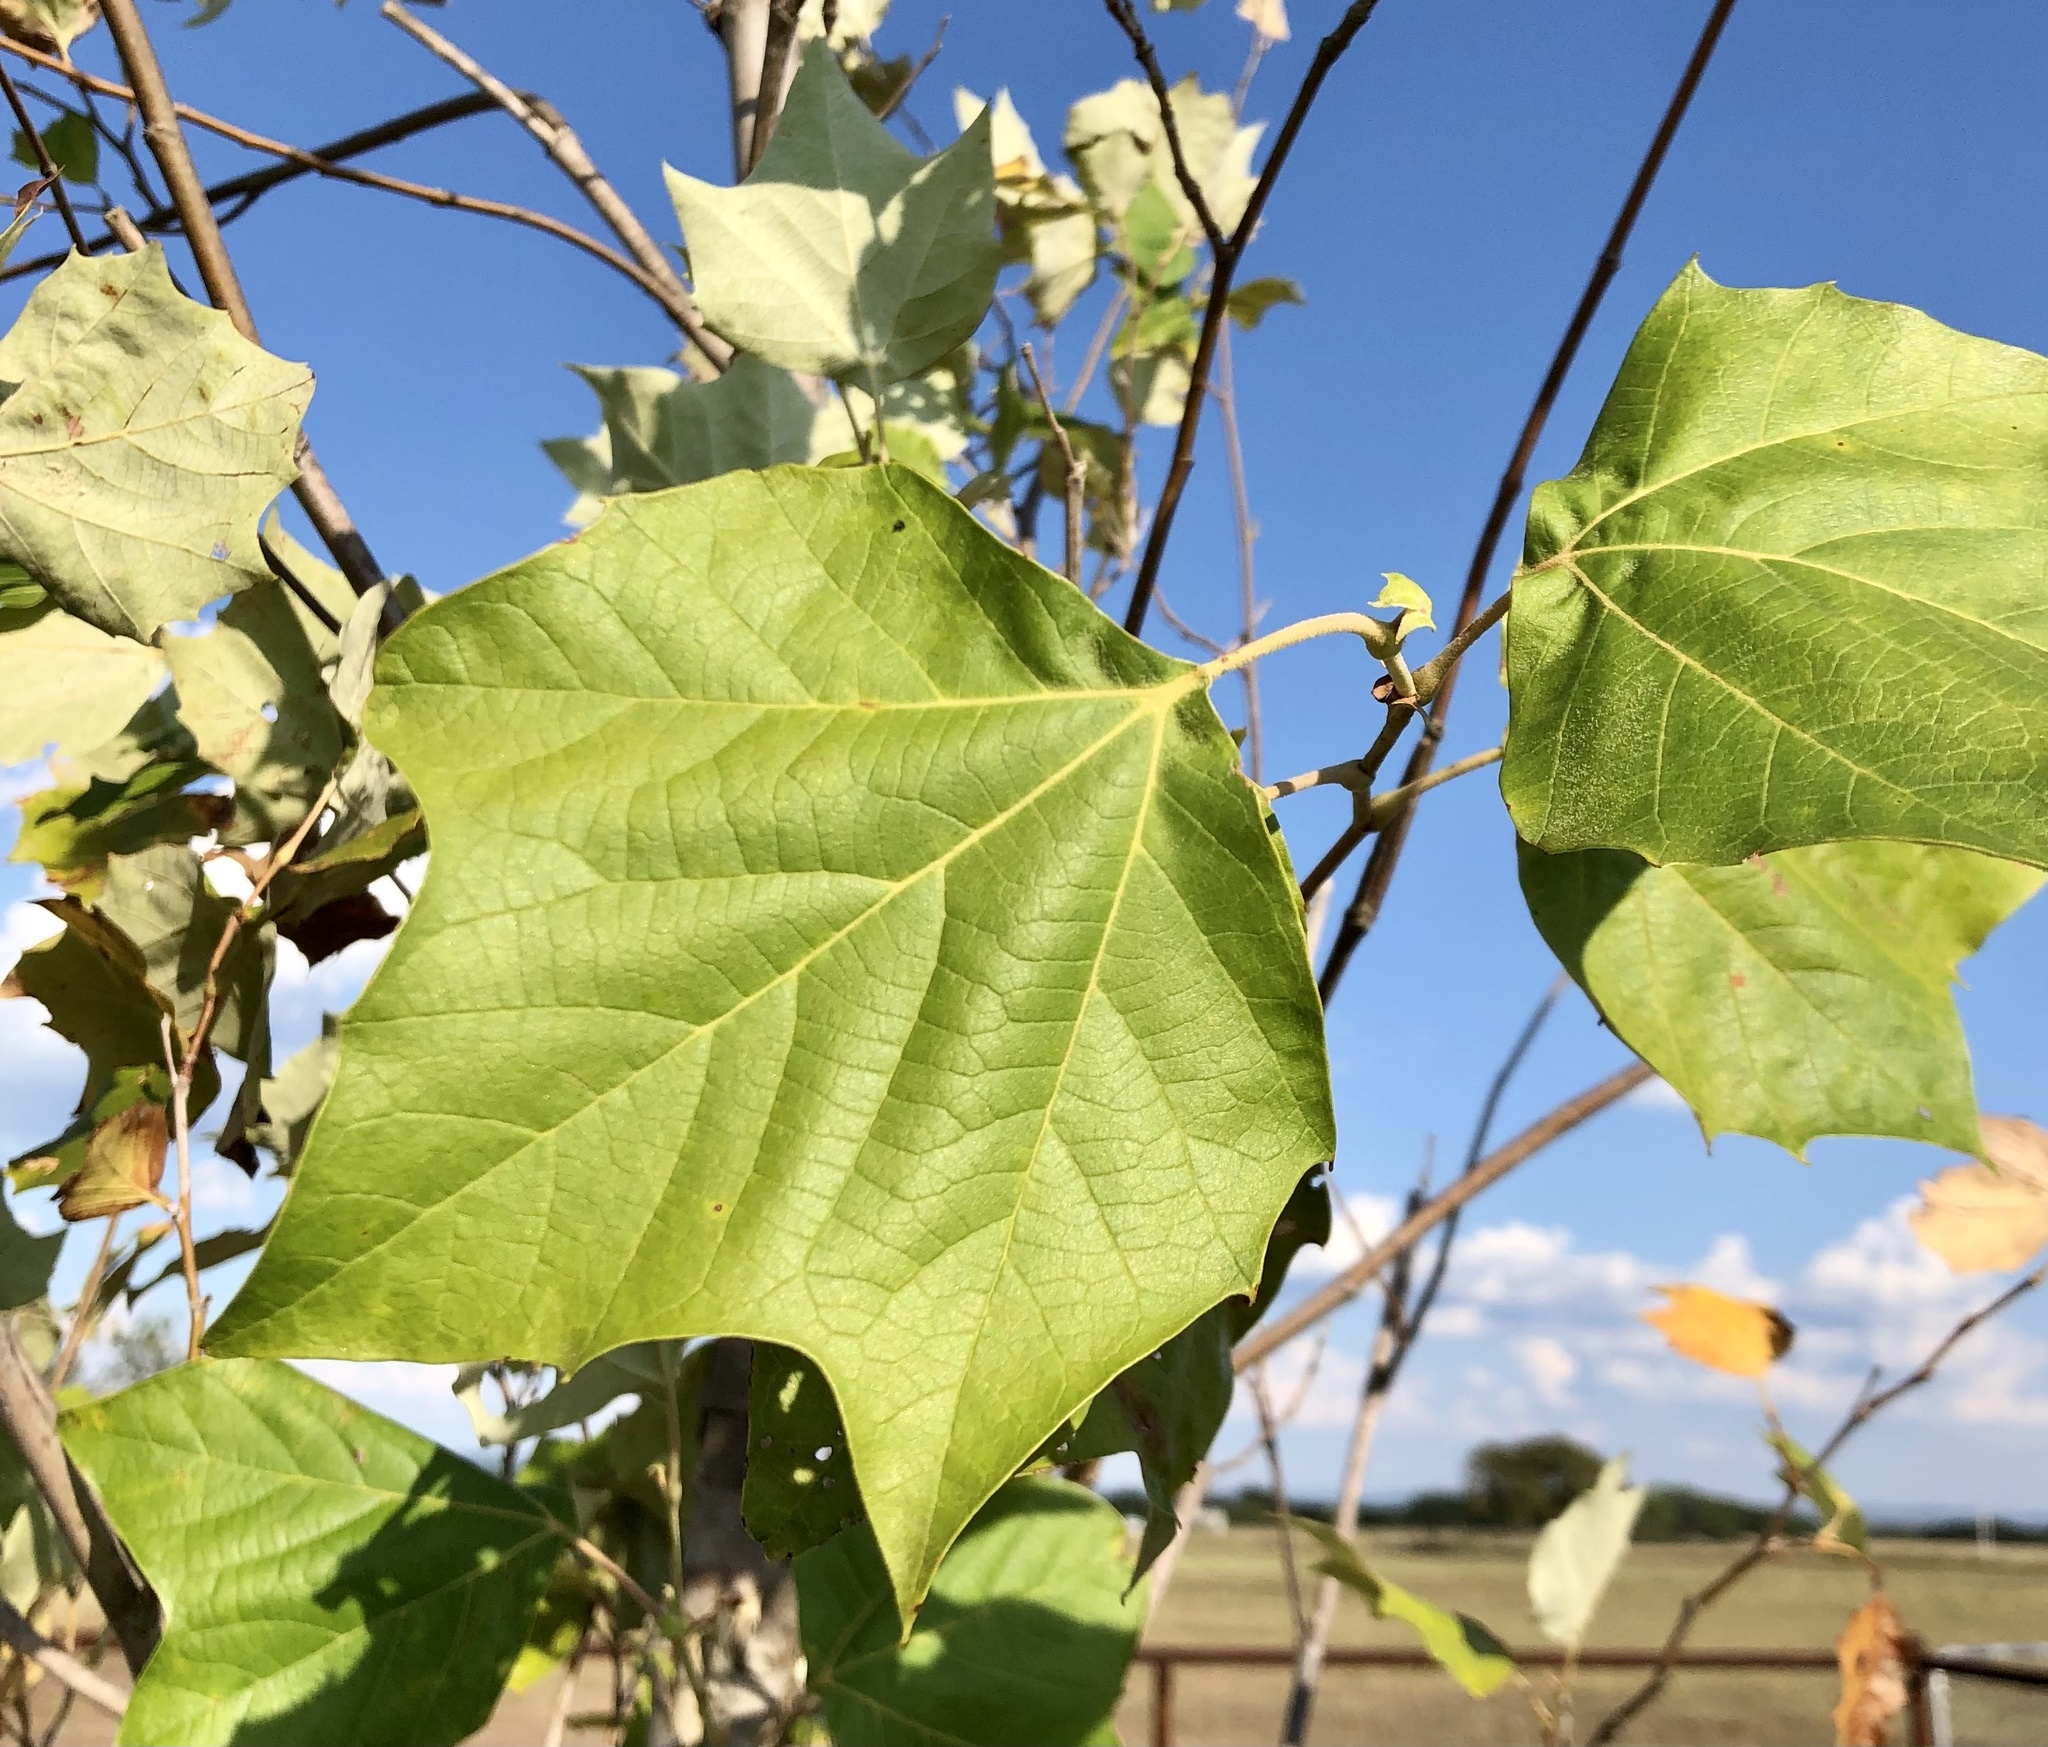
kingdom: Plantae
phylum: Tracheophyta
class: Magnoliopsida
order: Proteales
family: Platanaceae
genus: Platanus
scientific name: Platanus occidentalis
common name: American sycamore
